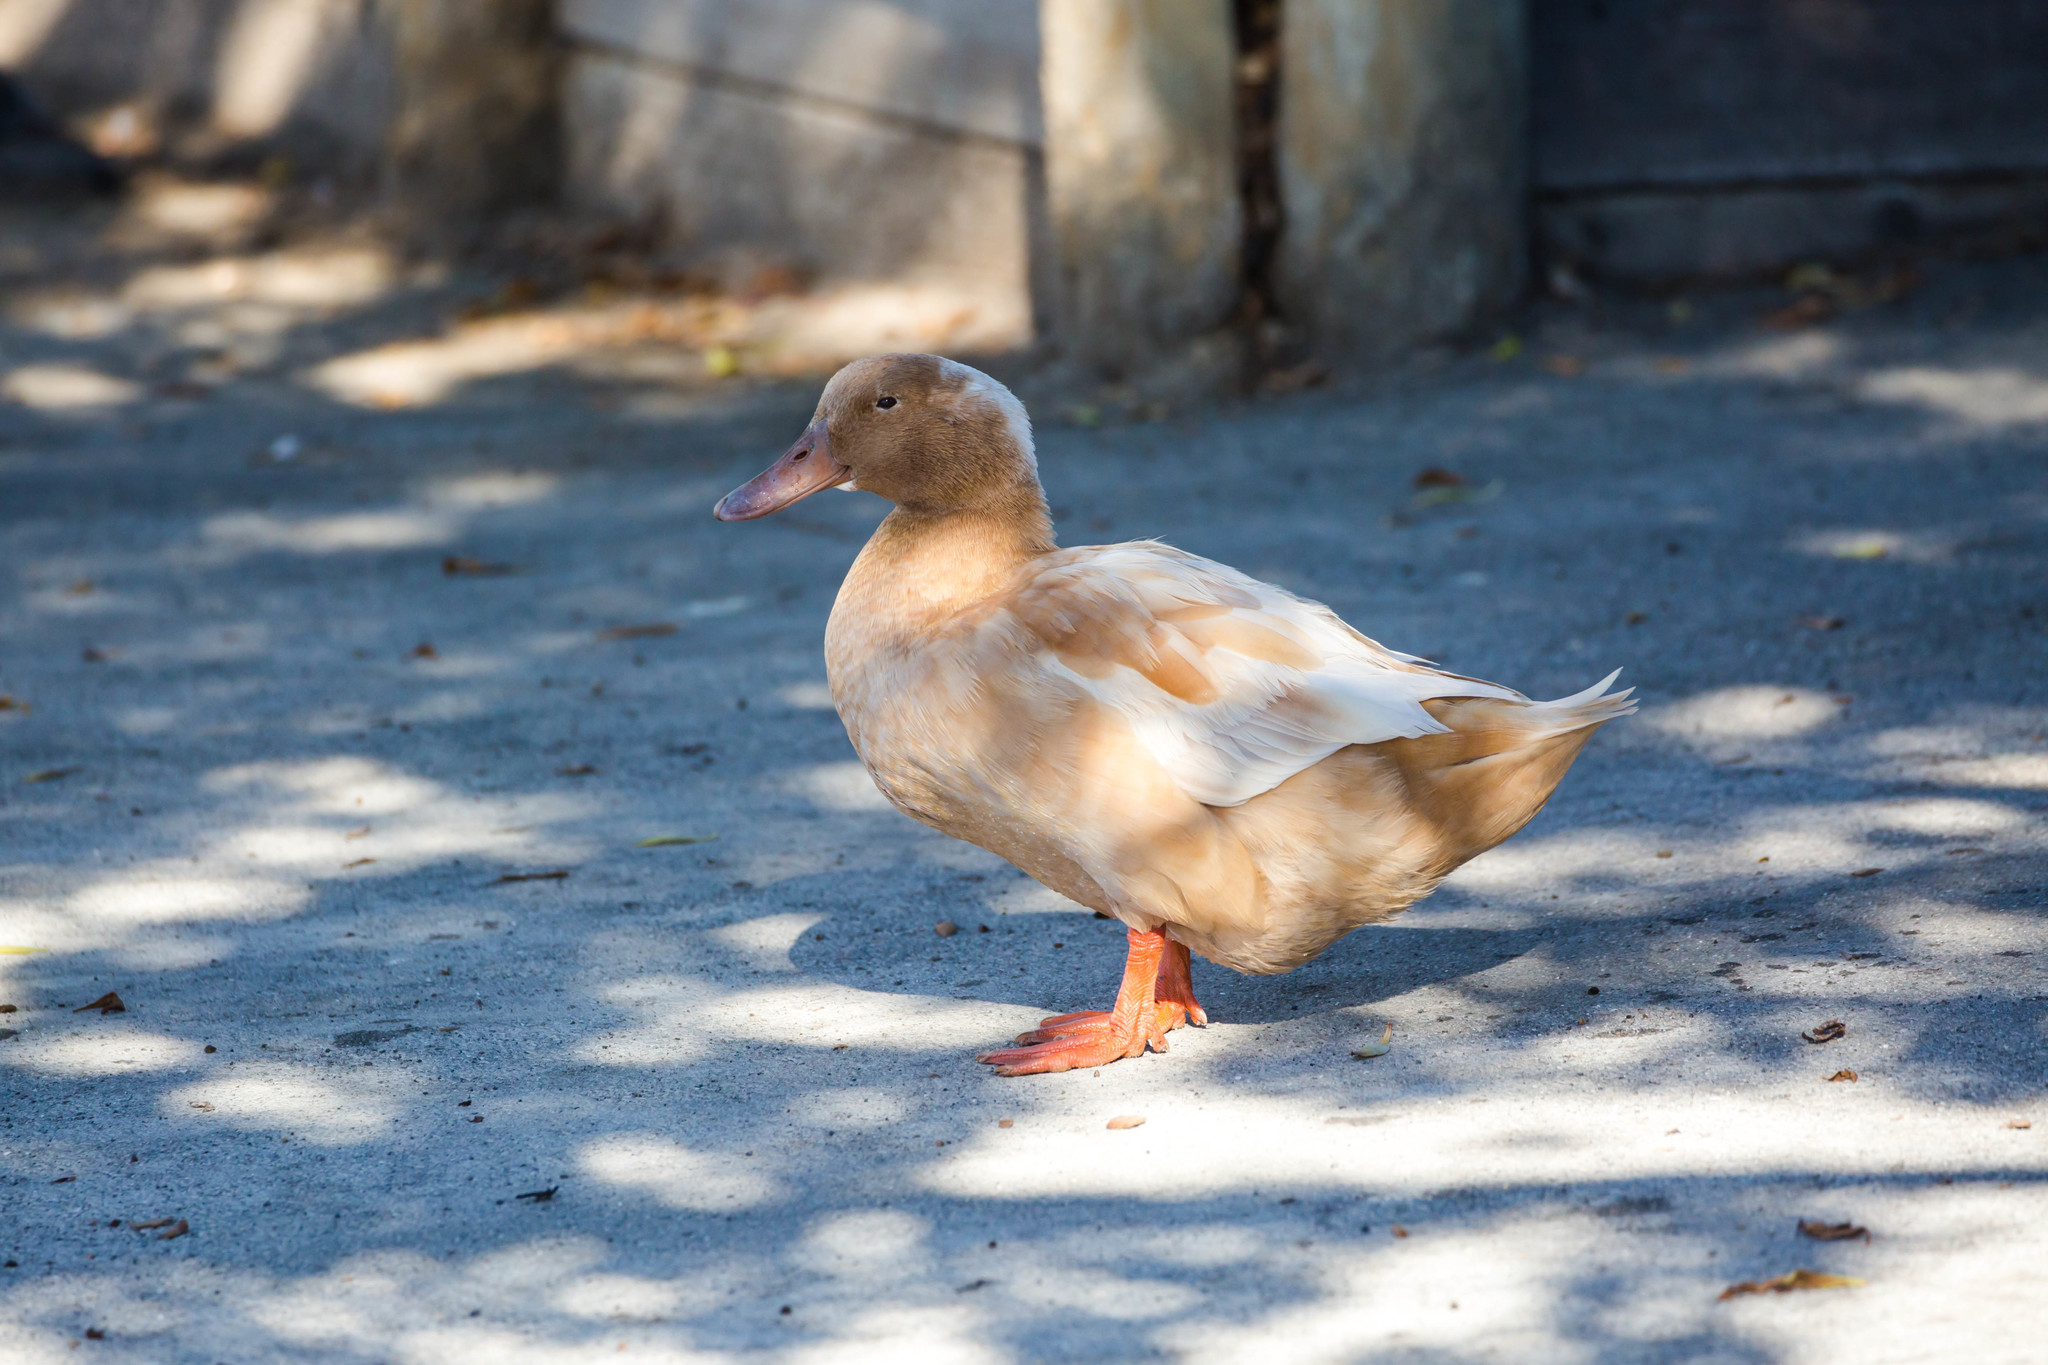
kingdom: Animalia
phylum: Chordata
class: Aves
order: Anseriformes
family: Anatidae
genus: Anas
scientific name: Anas platyrhynchos
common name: Mallard
